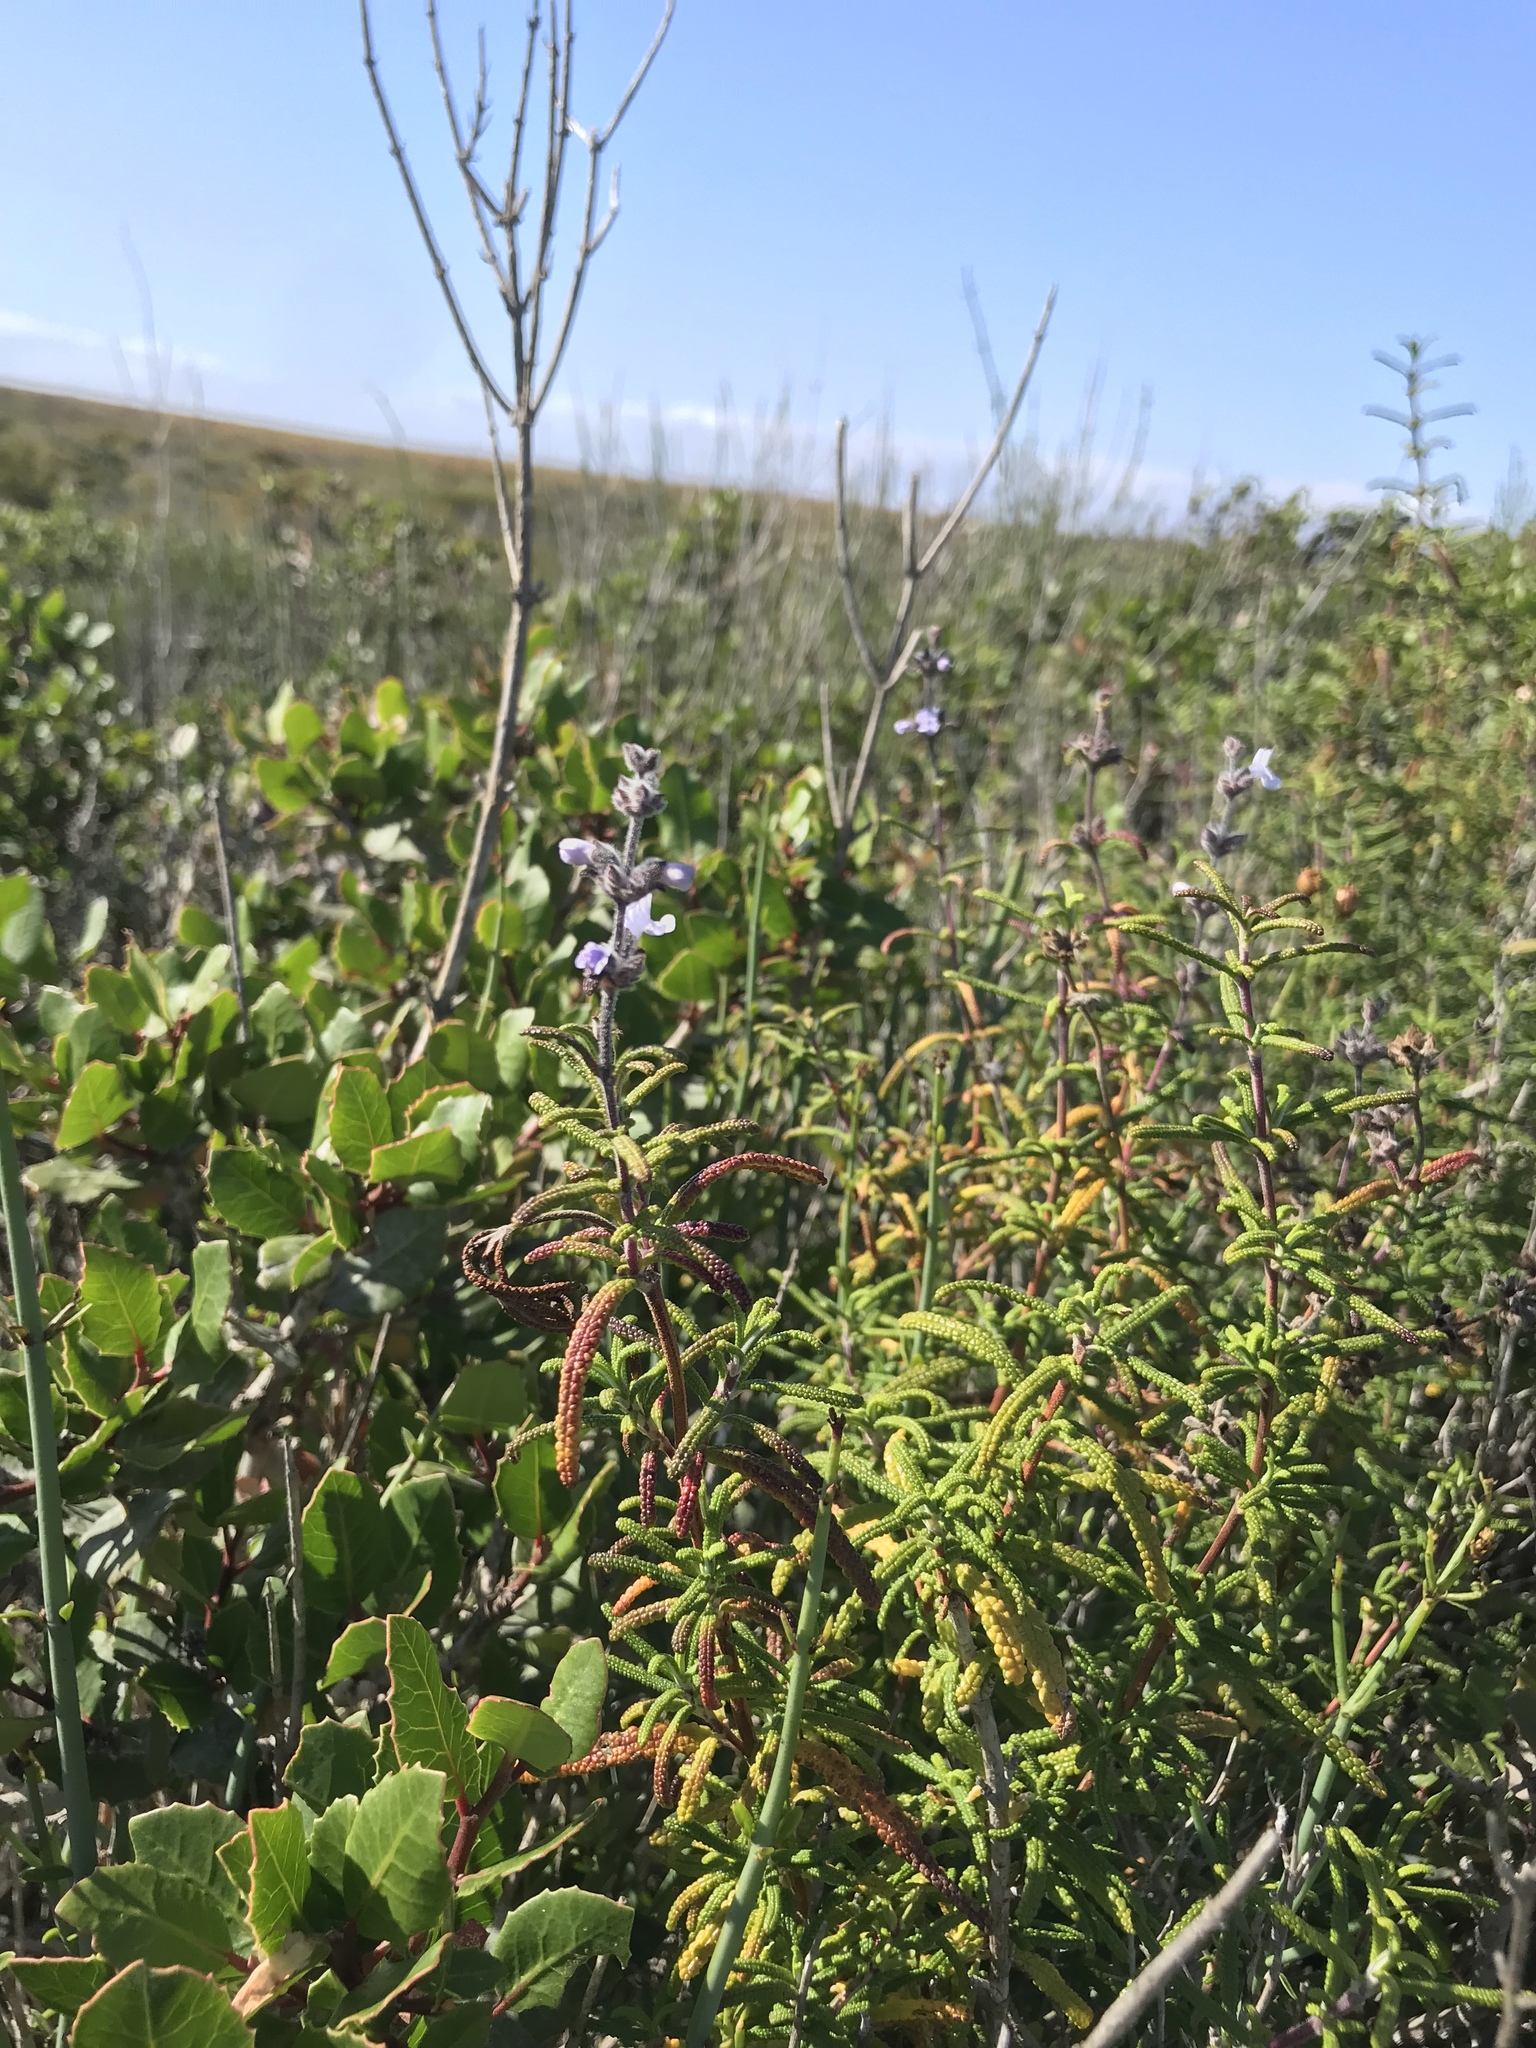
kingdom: Plantae
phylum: Tracheophyta
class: Magnoliopsida
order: Lamiales
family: Lamiaceae
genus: Salvia
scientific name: Salvia brandegeei
